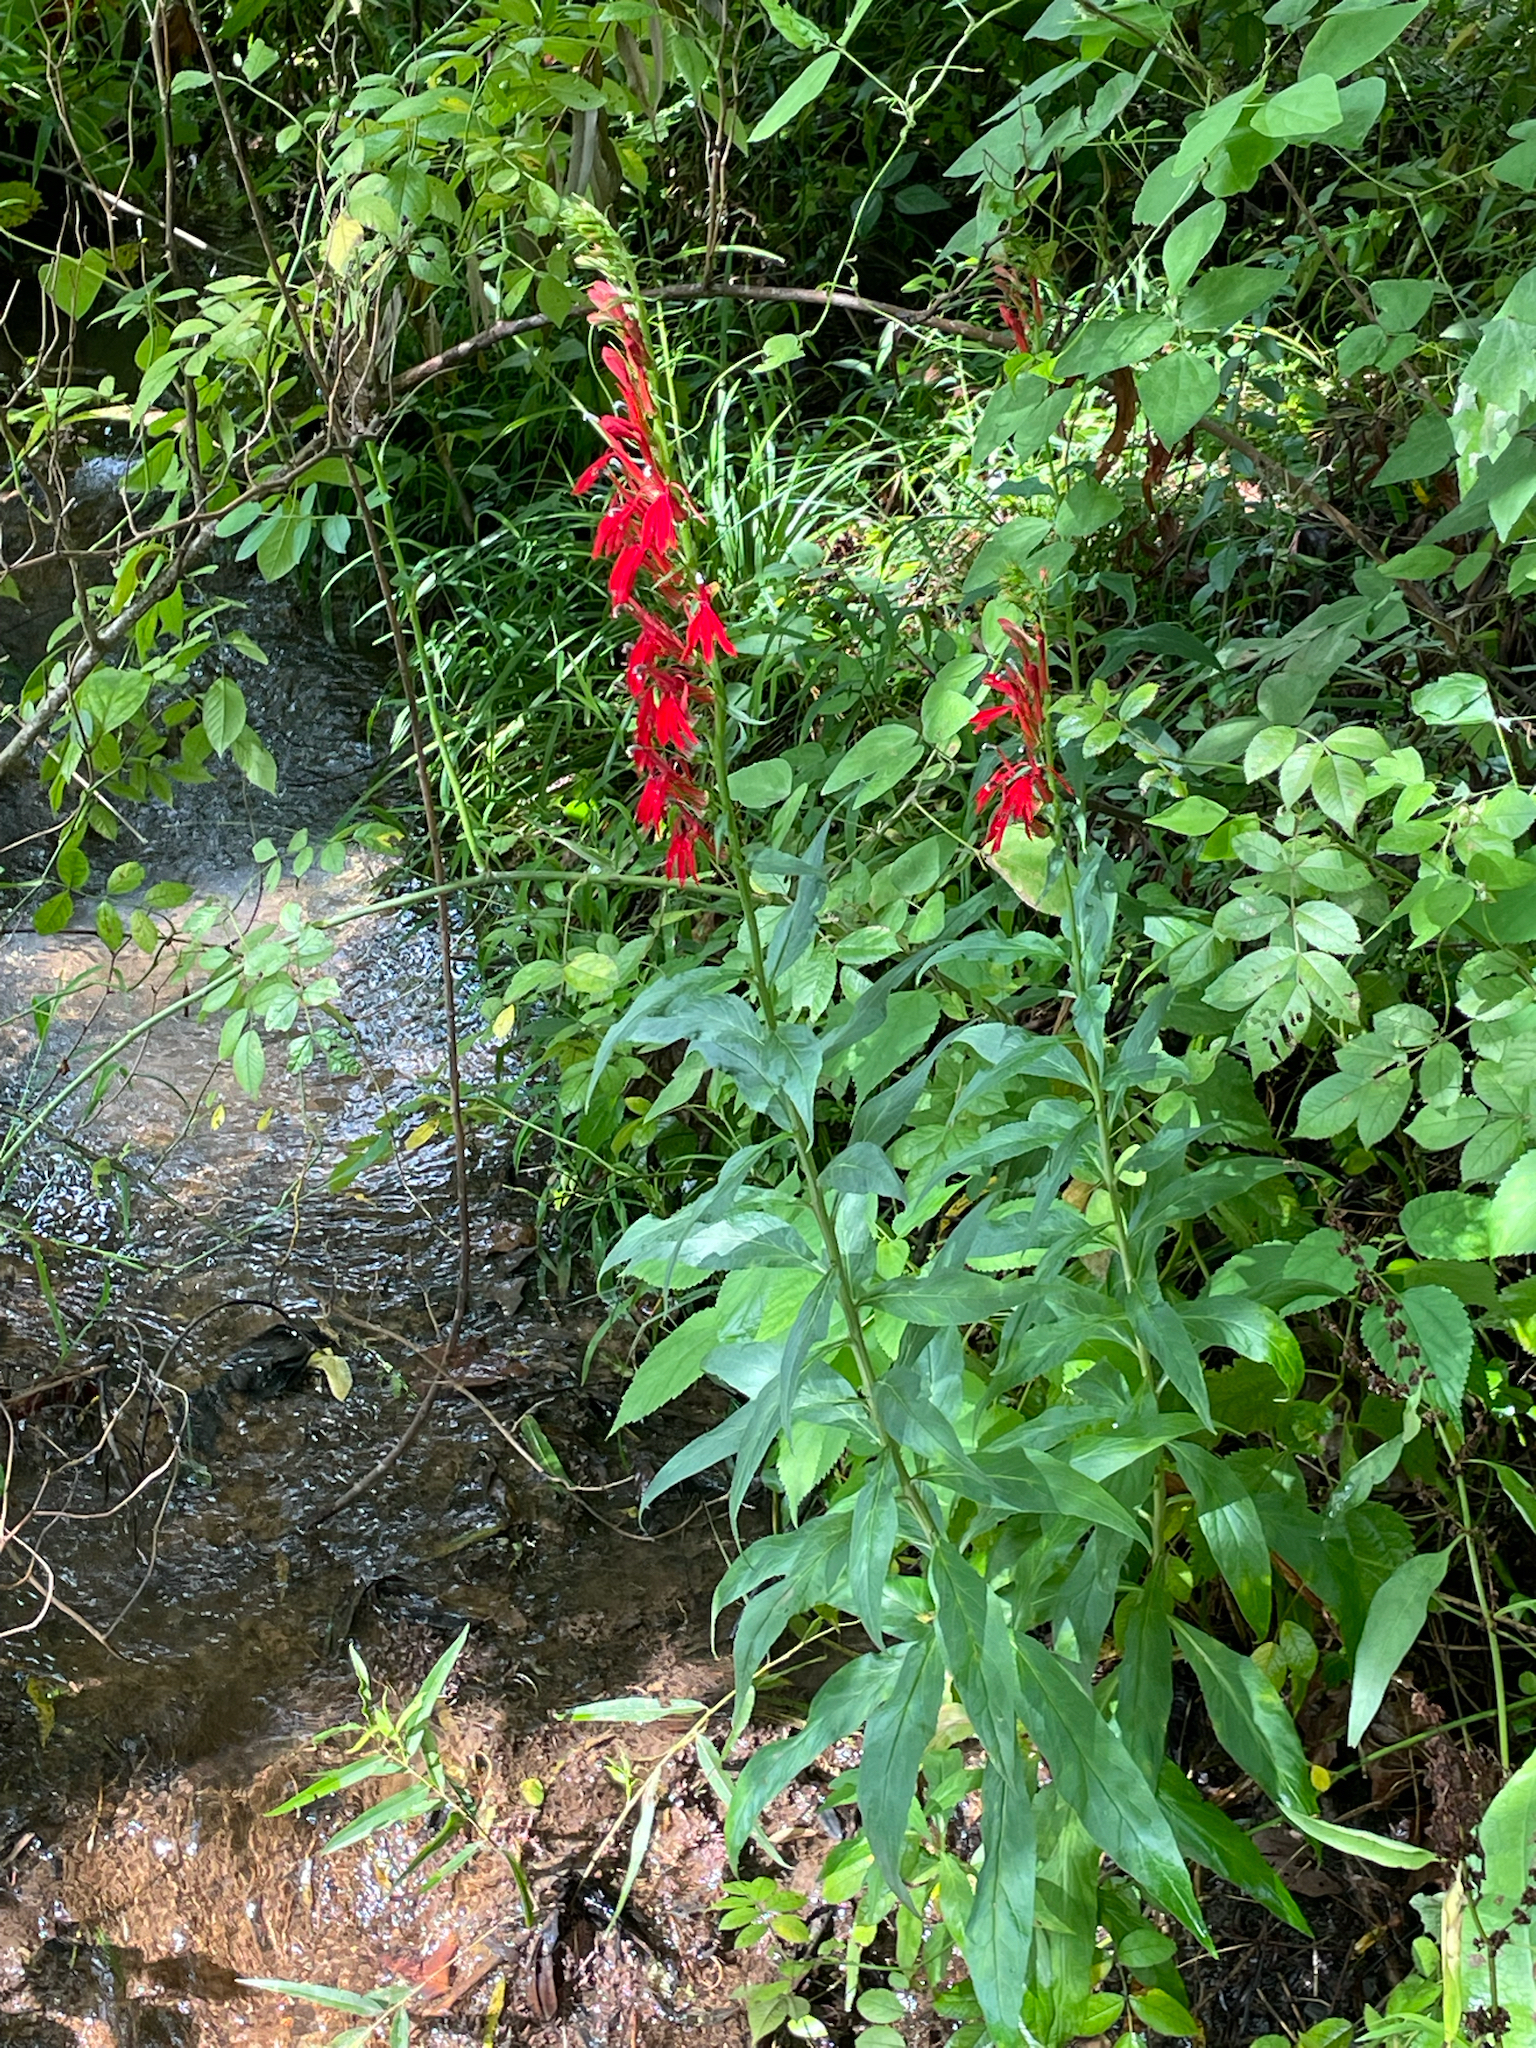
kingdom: Plantae
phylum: Tracheophyta
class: Magnoliopsida
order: Asterales
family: Campanulaceae
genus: Lobelia
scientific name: Lobelia cardinalis
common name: Cardinal flower
